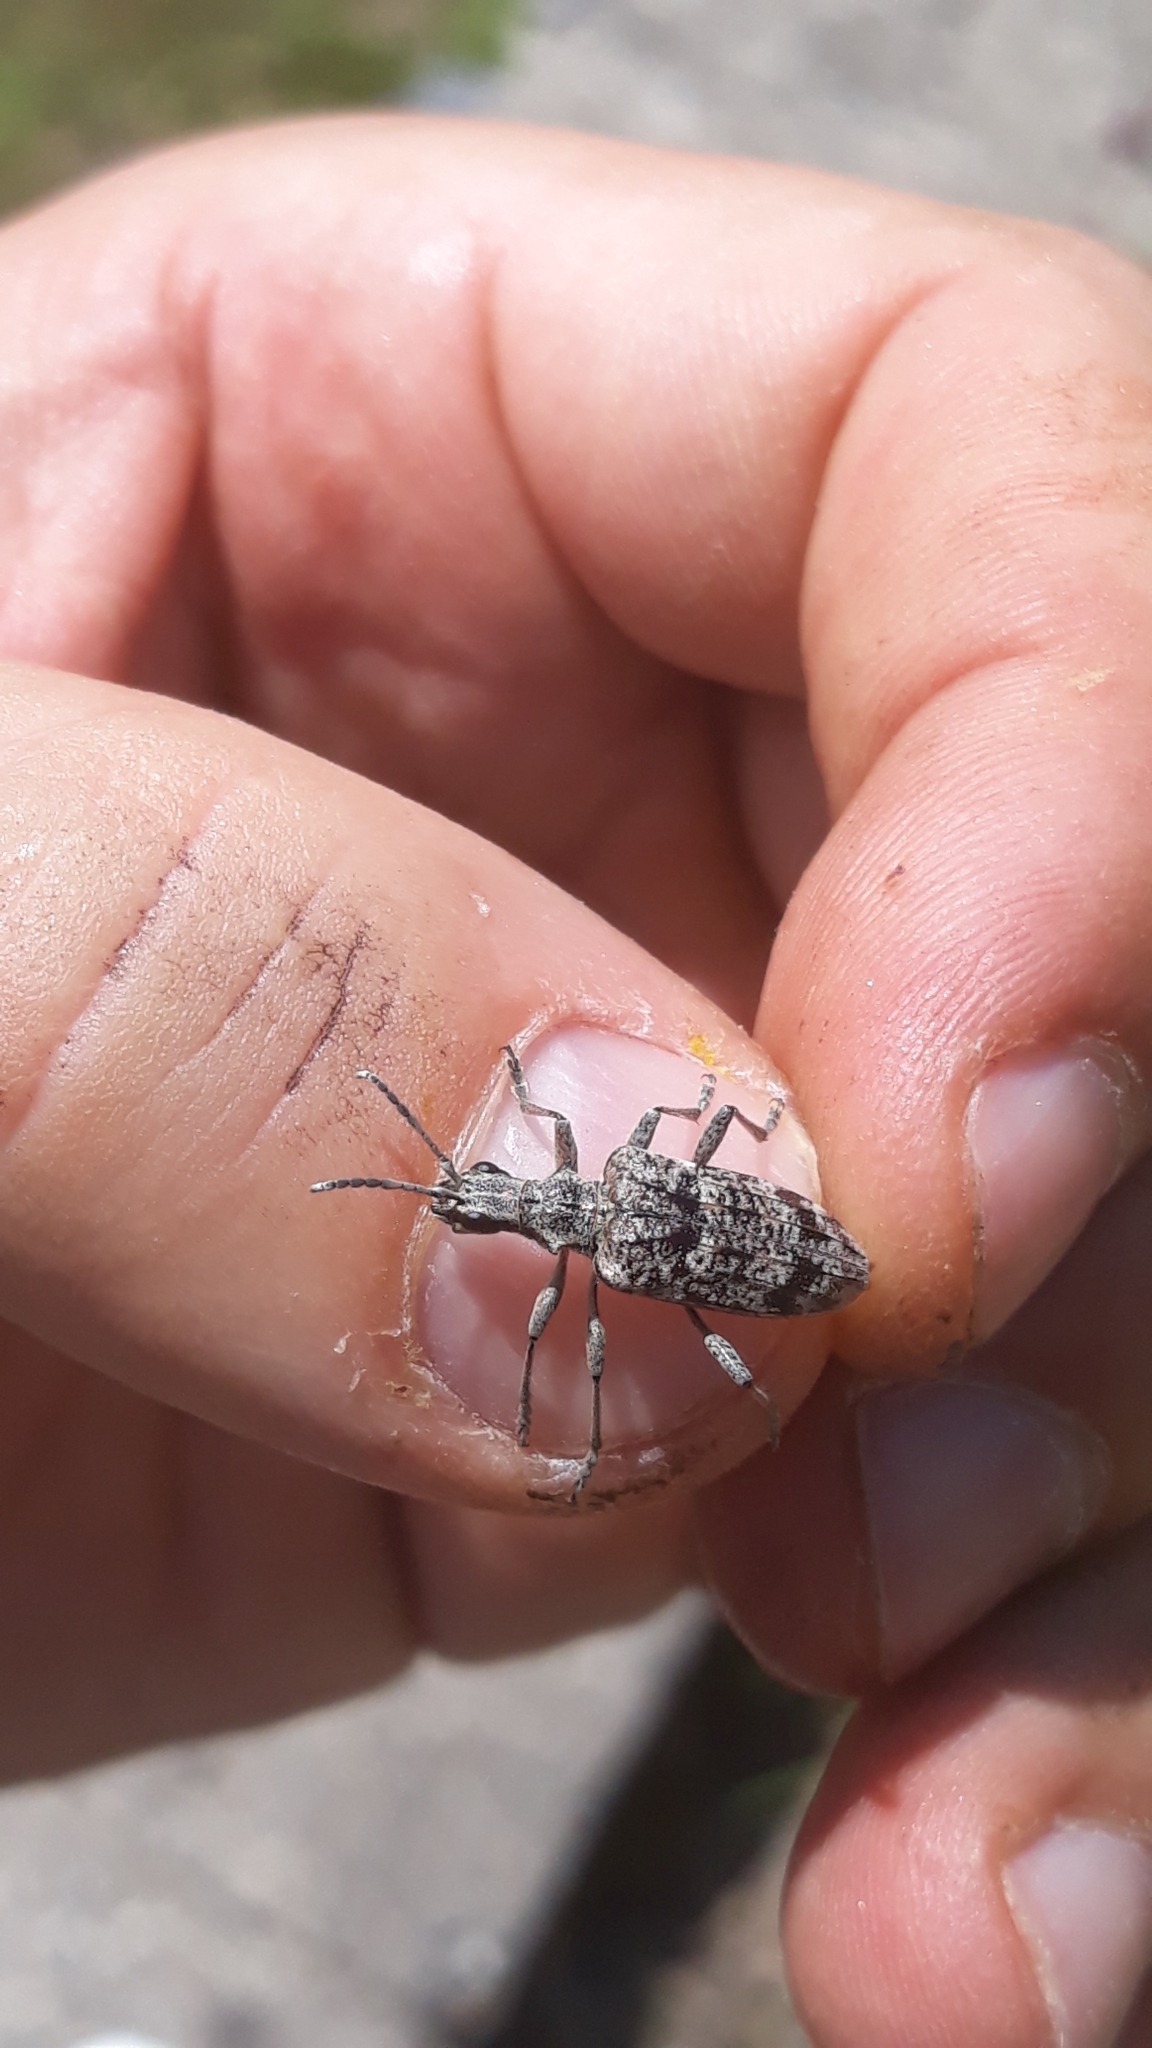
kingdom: Animalia
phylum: Arthropoda
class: Insecta
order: Coleoptera
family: Cerambycidae
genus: Rhagium
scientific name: Rhagium inquisitor
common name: Ribbed pine borer
